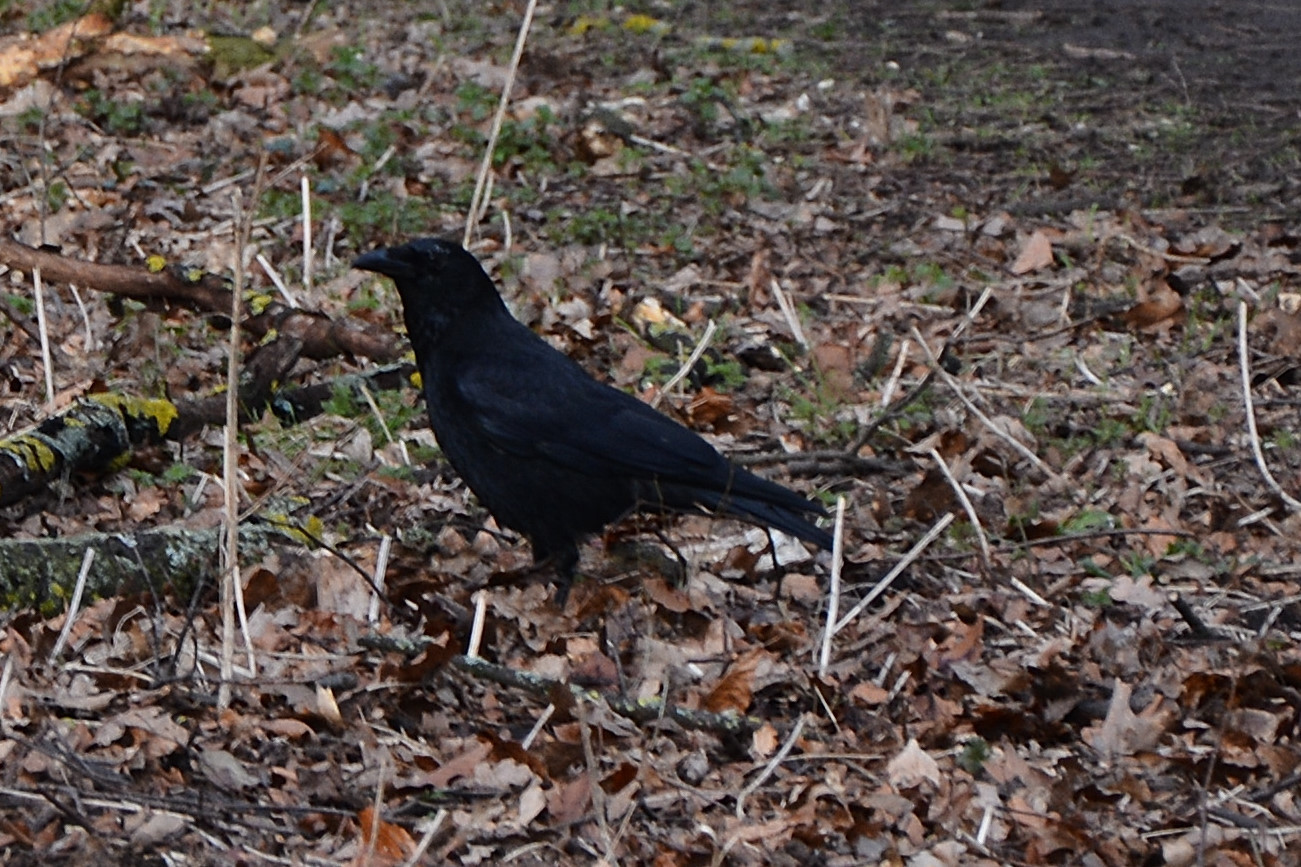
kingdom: Animalia
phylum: Chordata
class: Aves
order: Passeriformes
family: Corvidae
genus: Corvus
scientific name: Corvus corone
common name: Carrion crow
